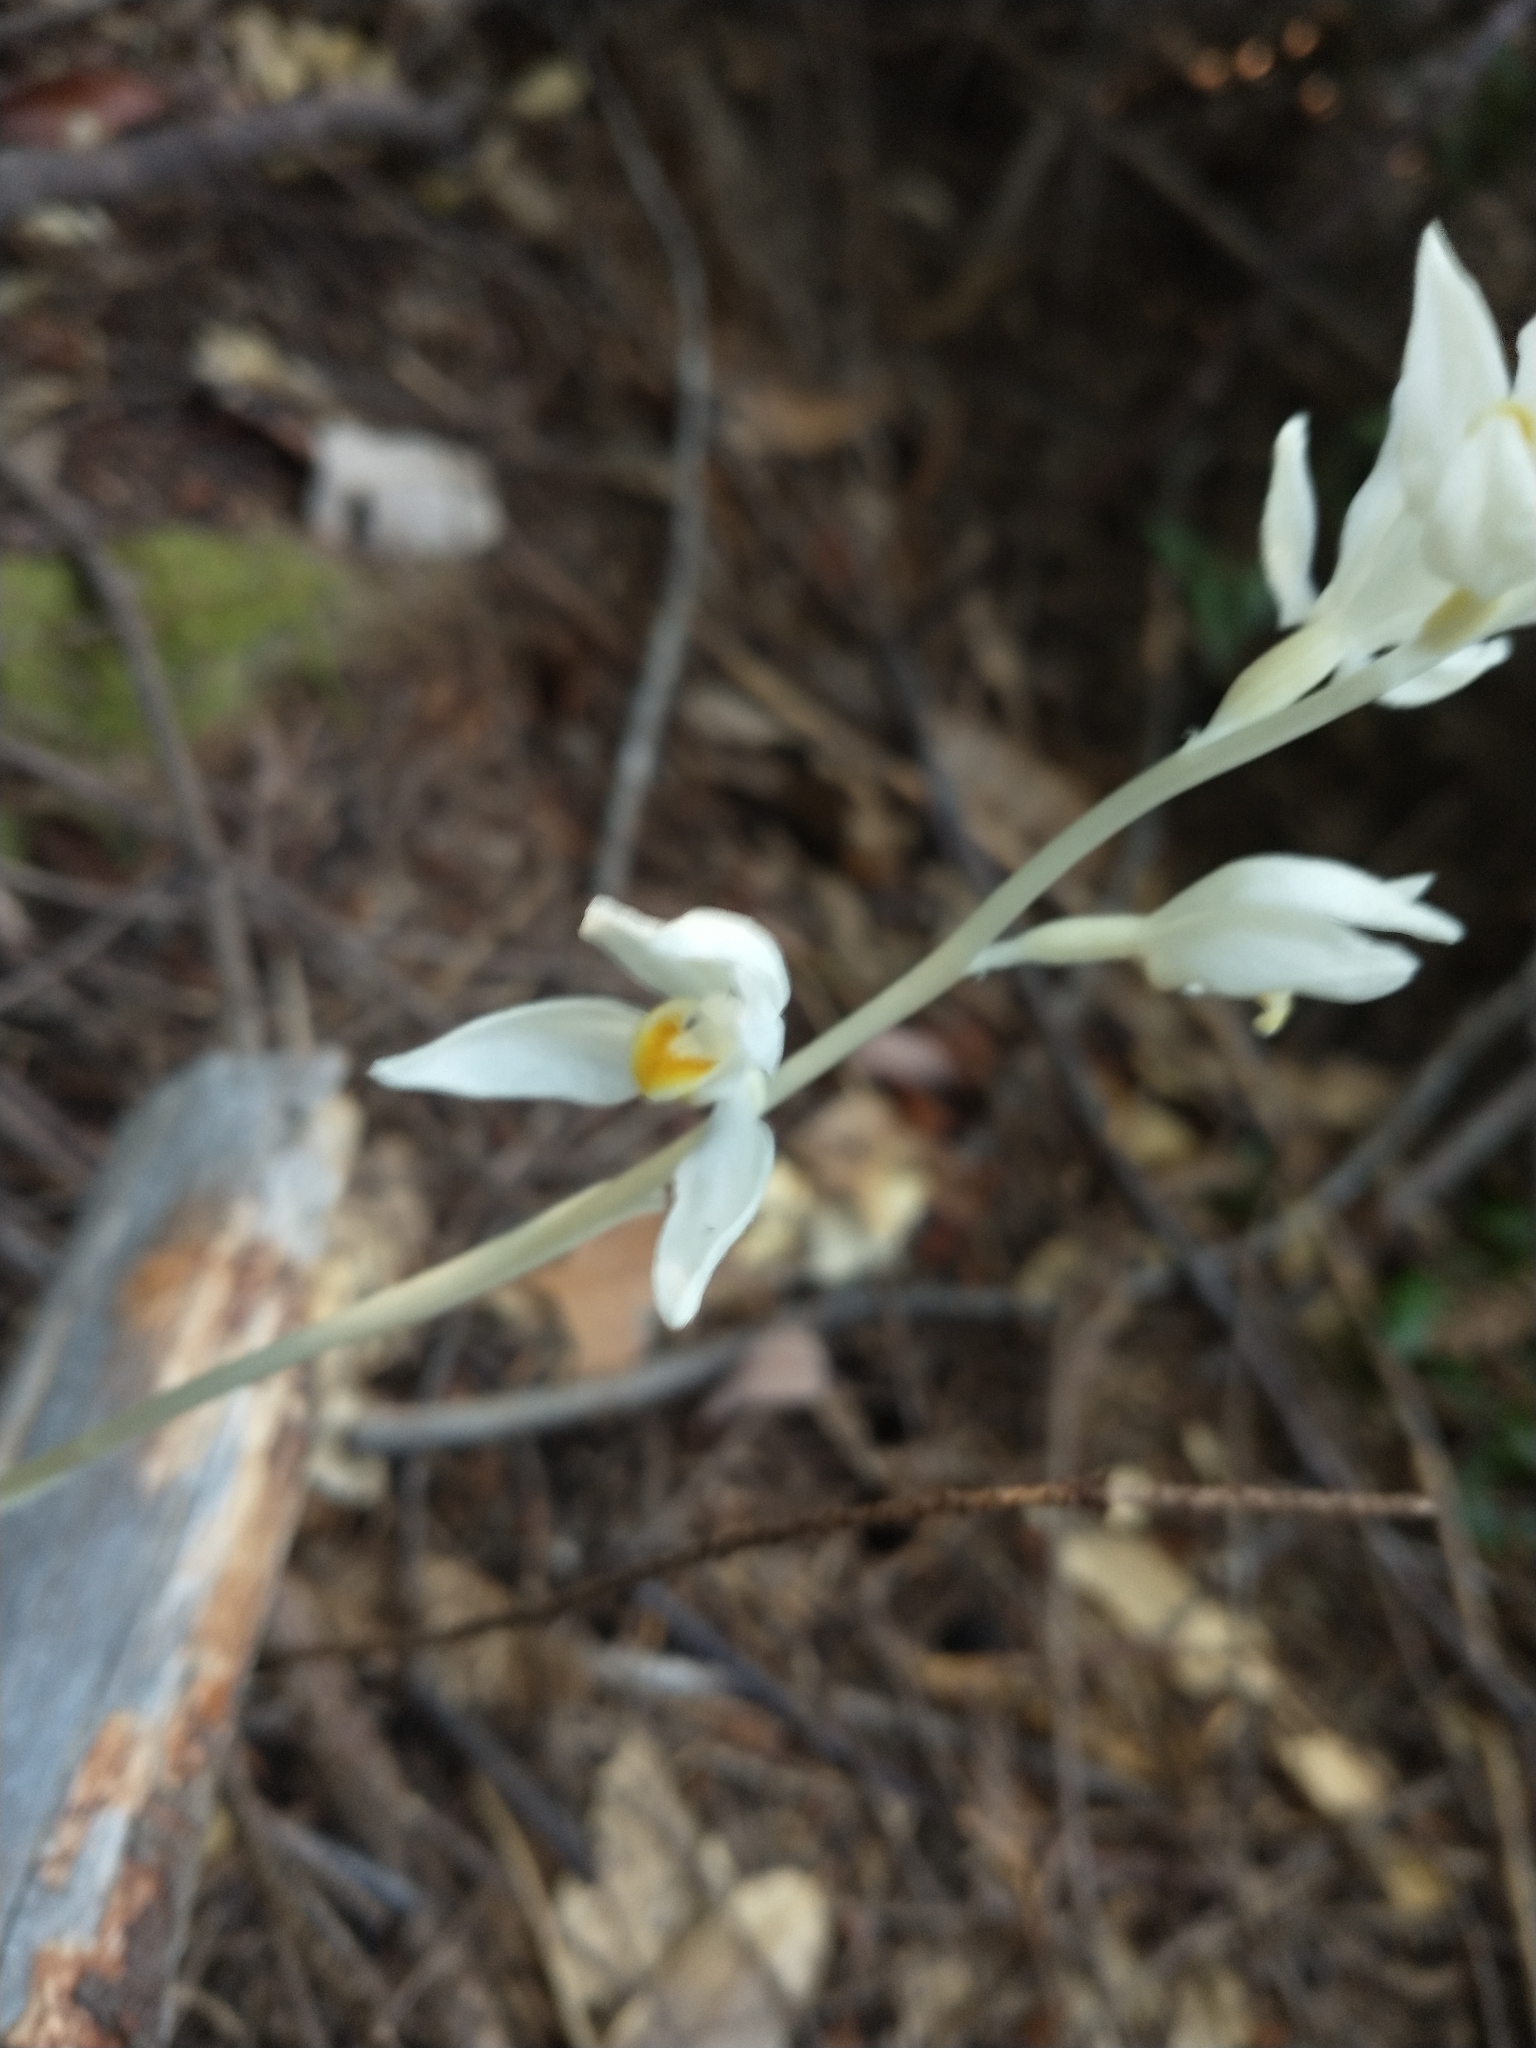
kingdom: Plantae
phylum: Tracheophyta
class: Liliopsida
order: Asparagales
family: Orchidaceae
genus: Cephalanthera
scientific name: Cephalanthera austiniae
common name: Phantom orchid
